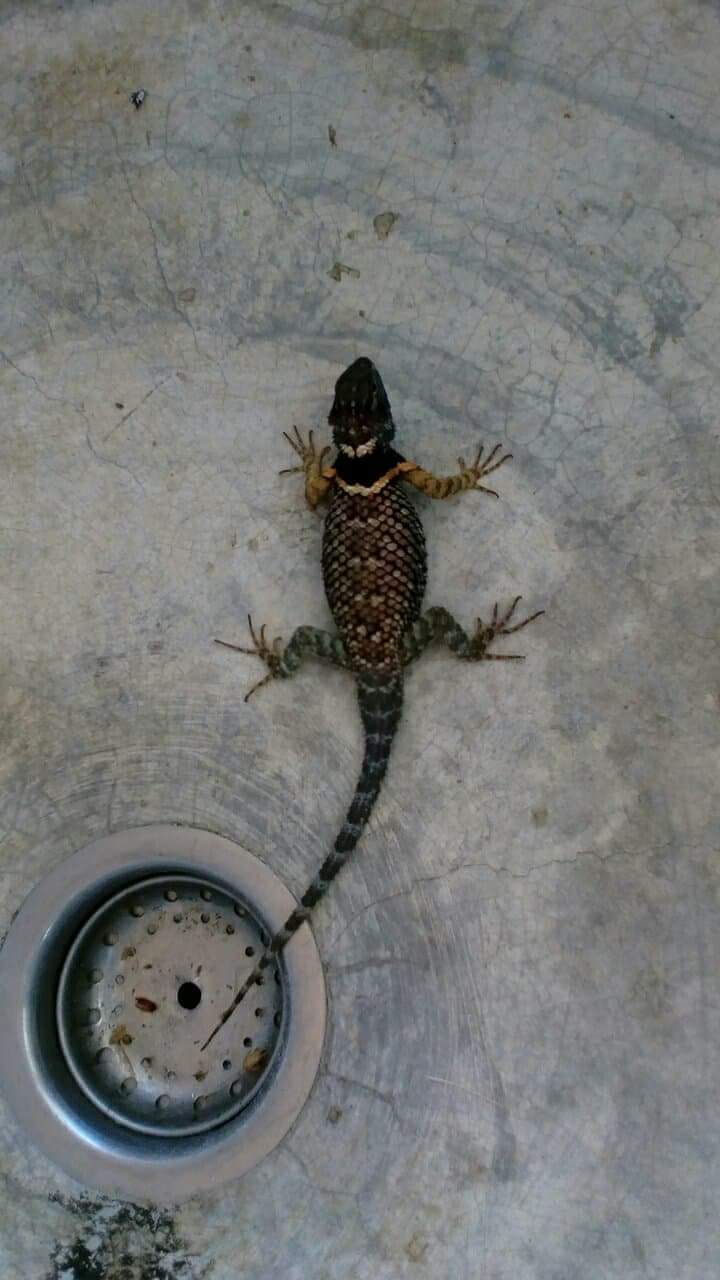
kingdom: Animalia
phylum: Chordata
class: Squamata
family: Phrynosomatidae
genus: Sceloporus
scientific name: Sceloporus aureolus
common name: Eastern cleft spiny lizard
